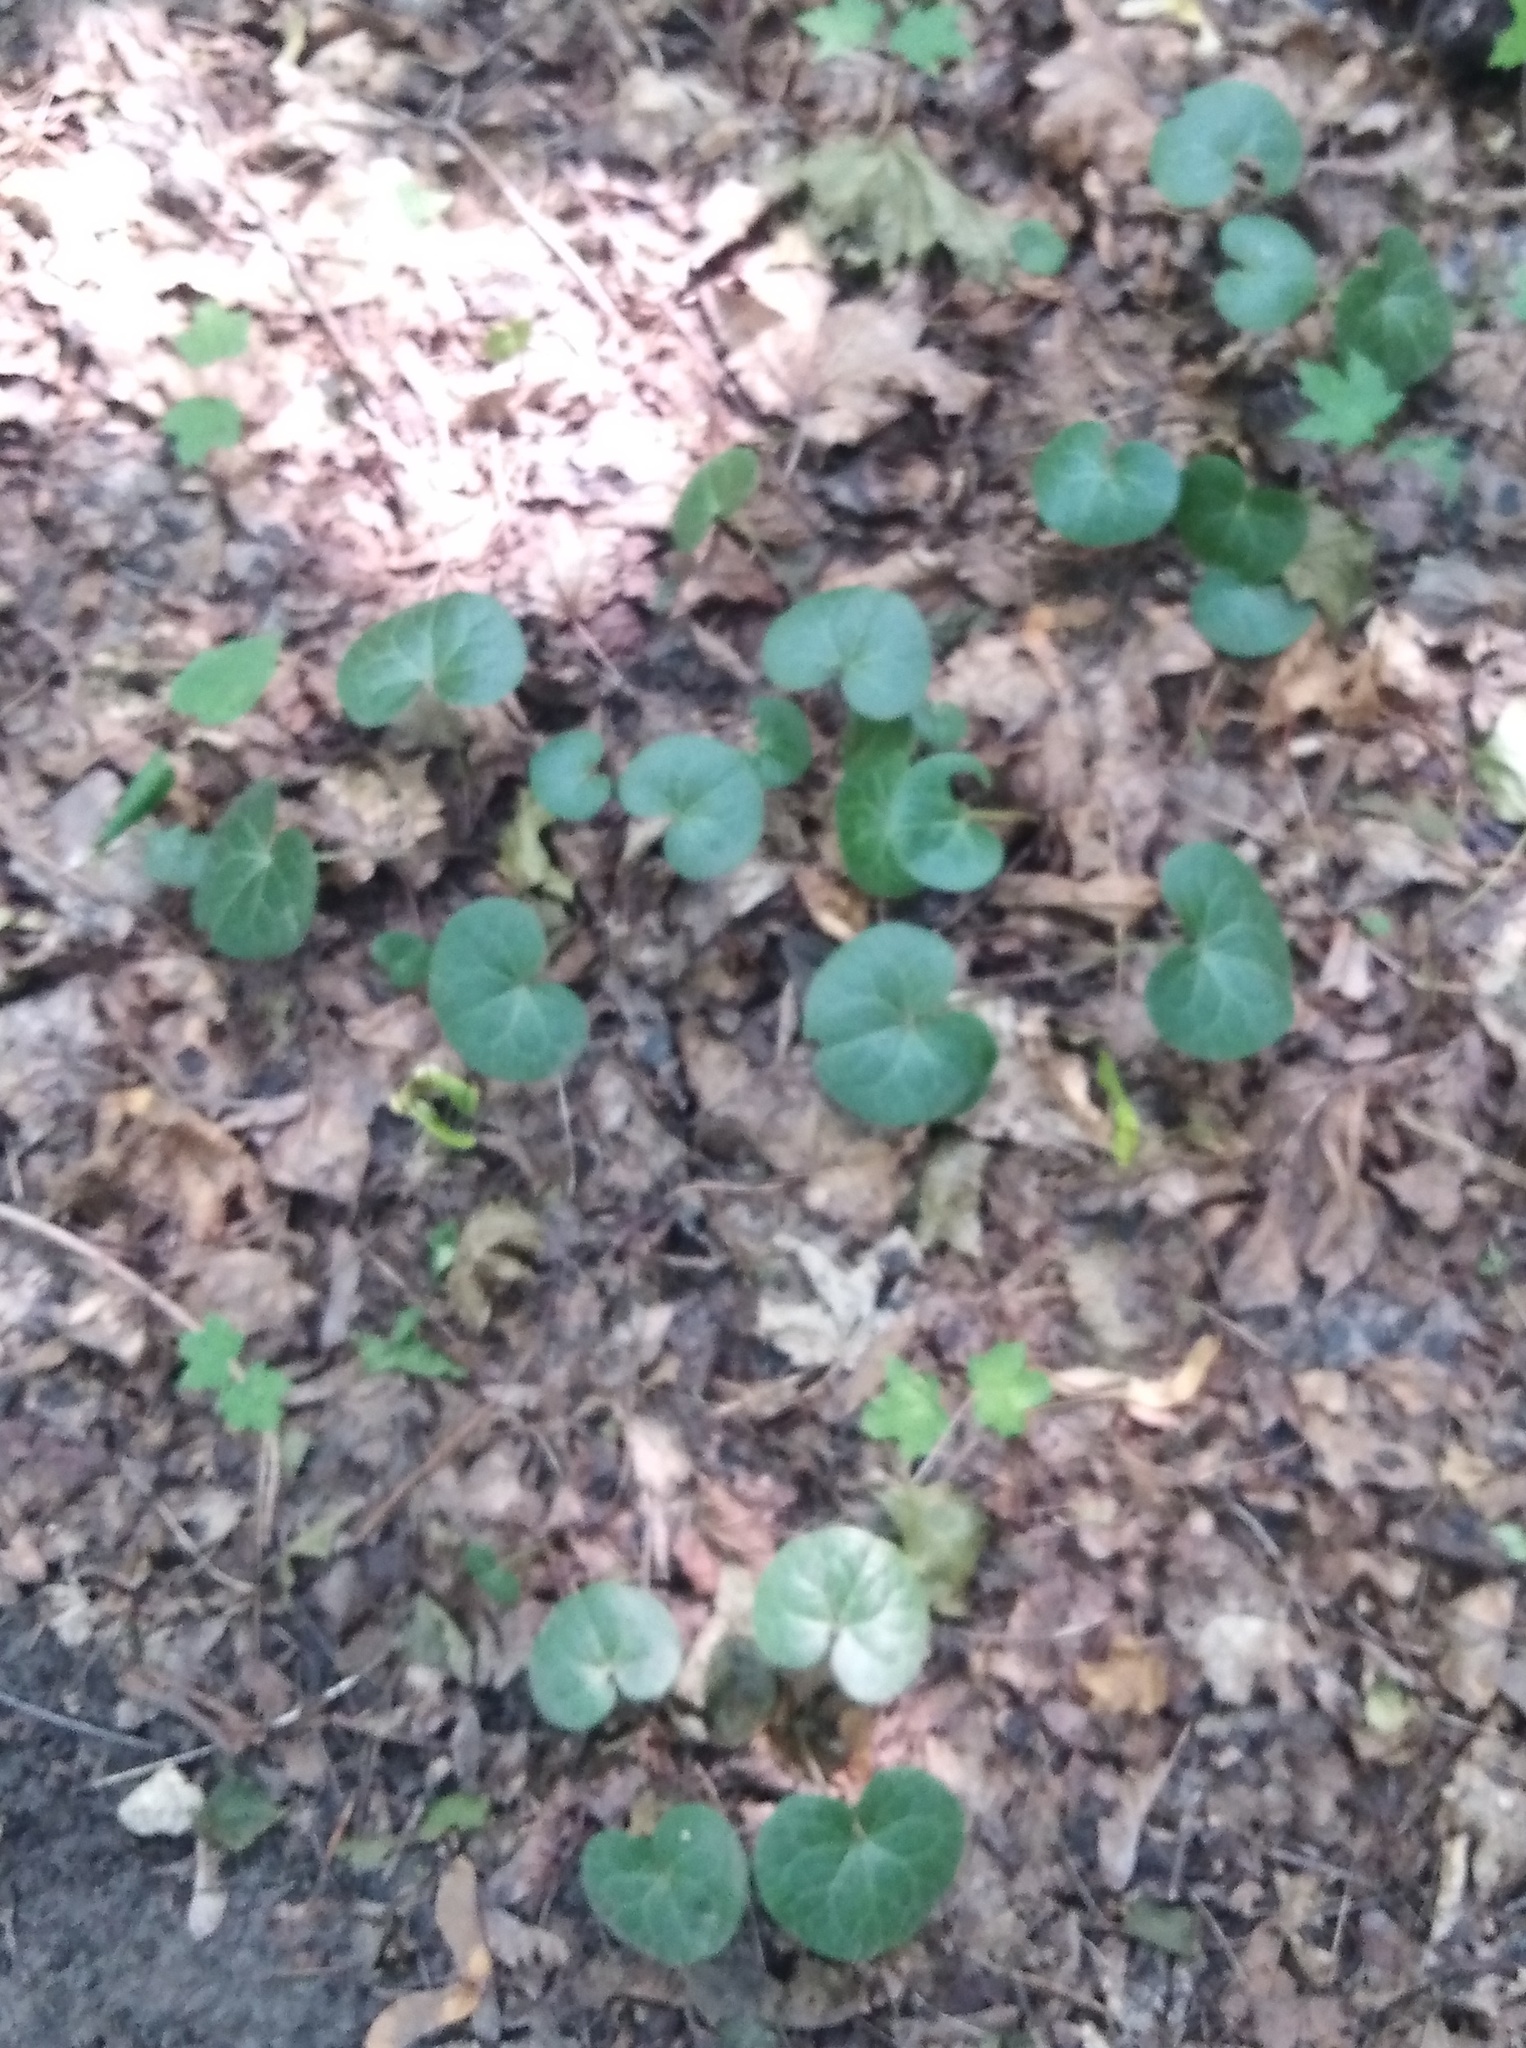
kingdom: Plantae
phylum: Tracheophyta
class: Magnoliopsida
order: Piperales
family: Aristolochiaceae
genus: Asarum
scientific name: Asarum europaeum
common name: Asarabacca
